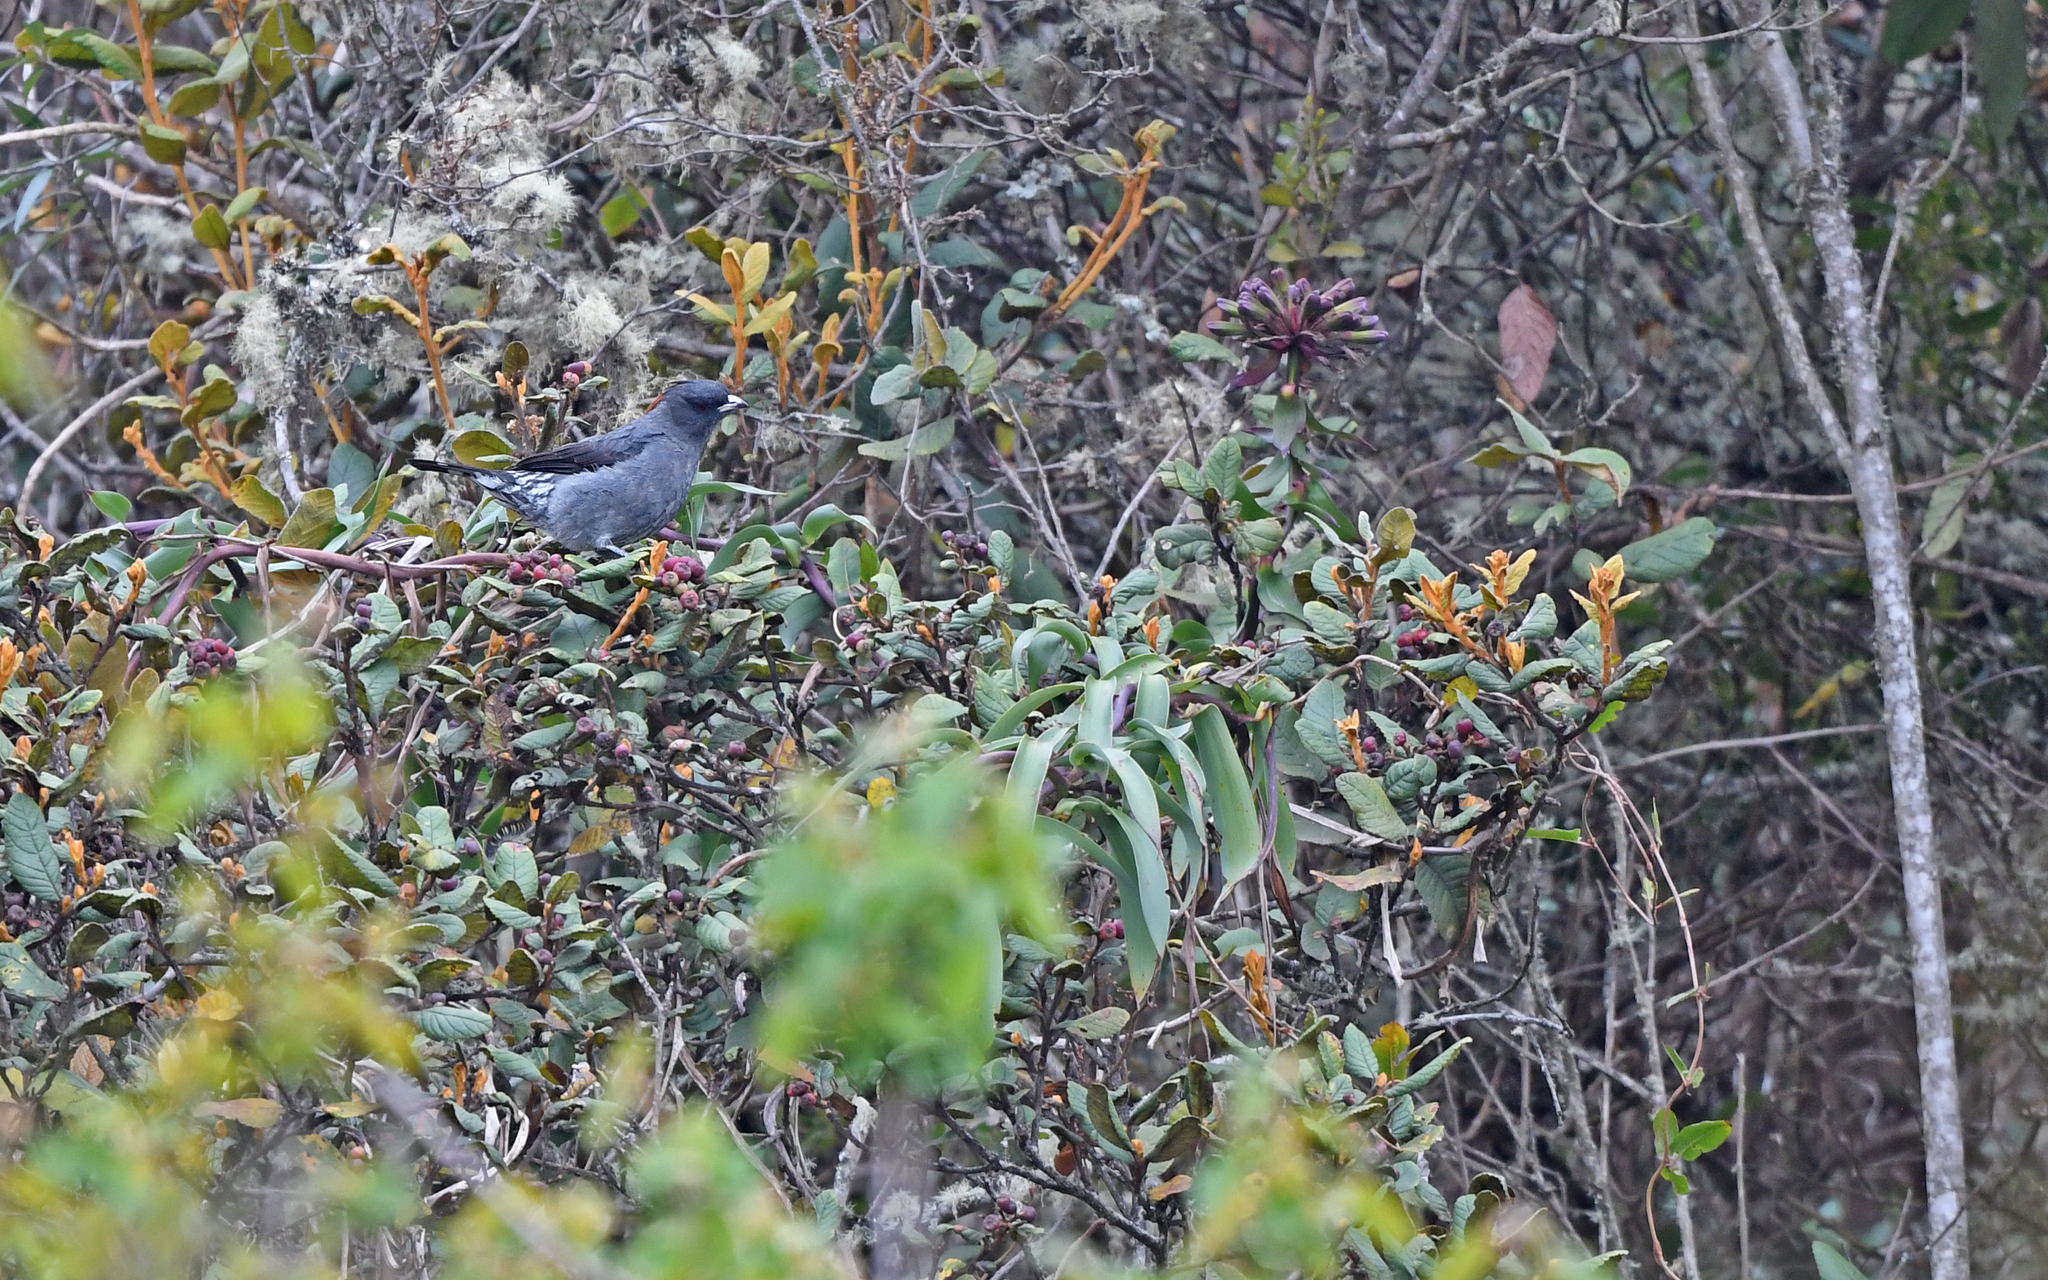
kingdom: Animalia
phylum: Chordata
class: Aves
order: Passeriformes
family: Cotingidae
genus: Ampelion
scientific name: Ampelion rubrocristatus
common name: Red-crested cotinga
